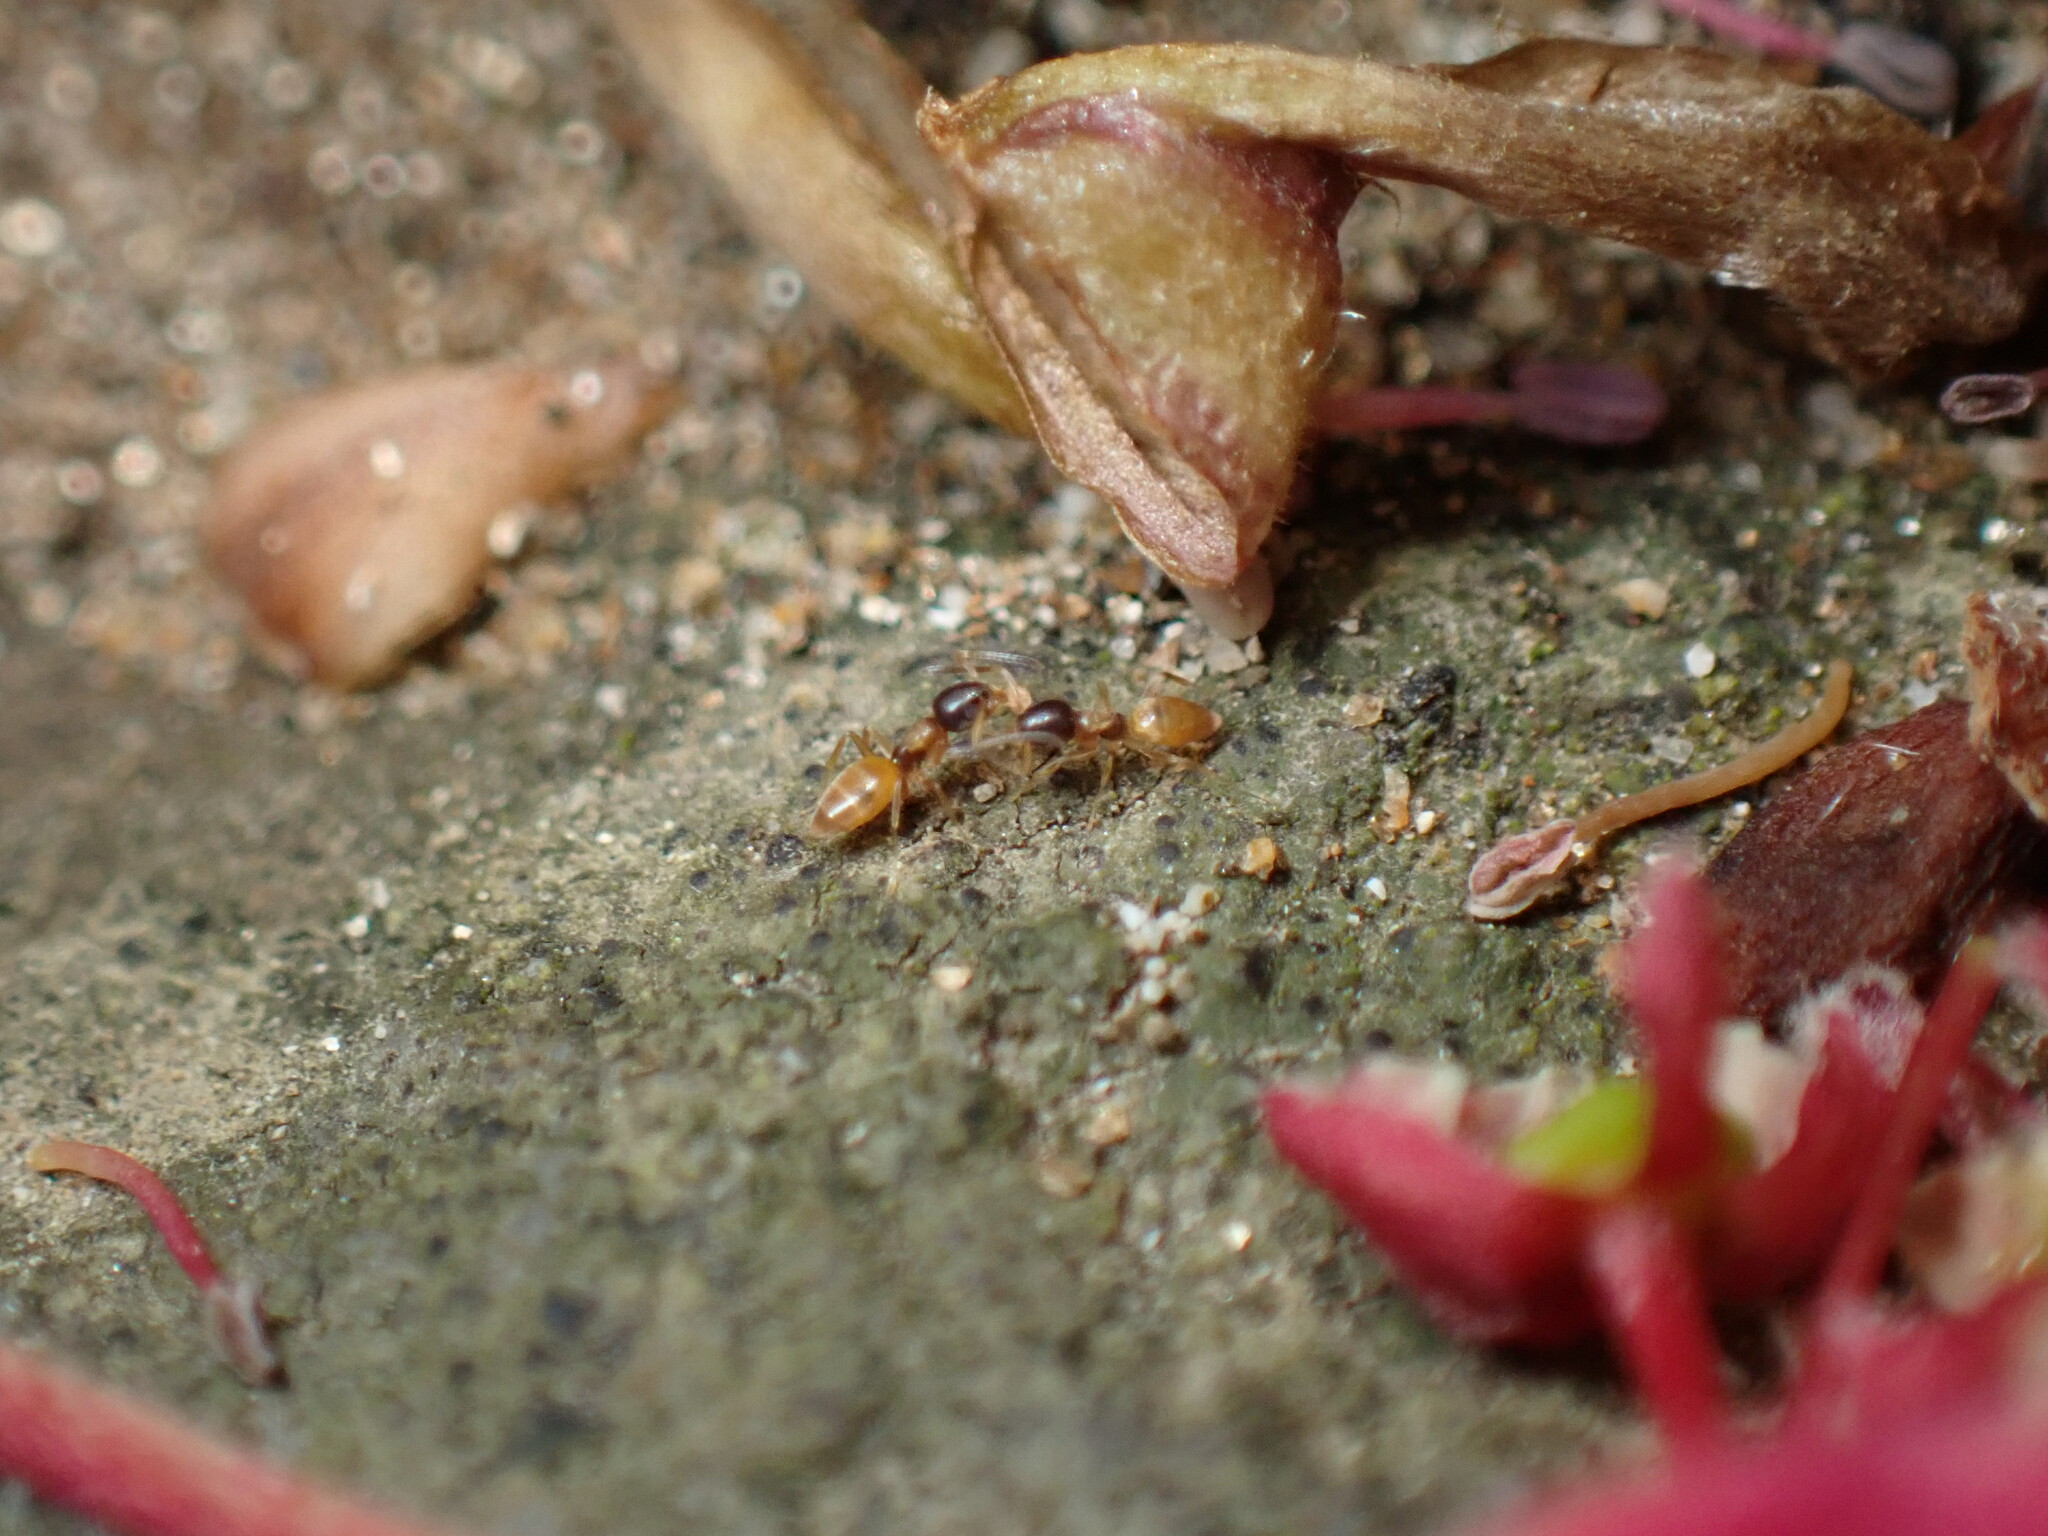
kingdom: Animalia
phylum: Arthropoda
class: Insecta
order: Hymenoptera
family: Formicidae
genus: Tapinoma
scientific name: Tapinoma melanocephalum
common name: Ghost ant
